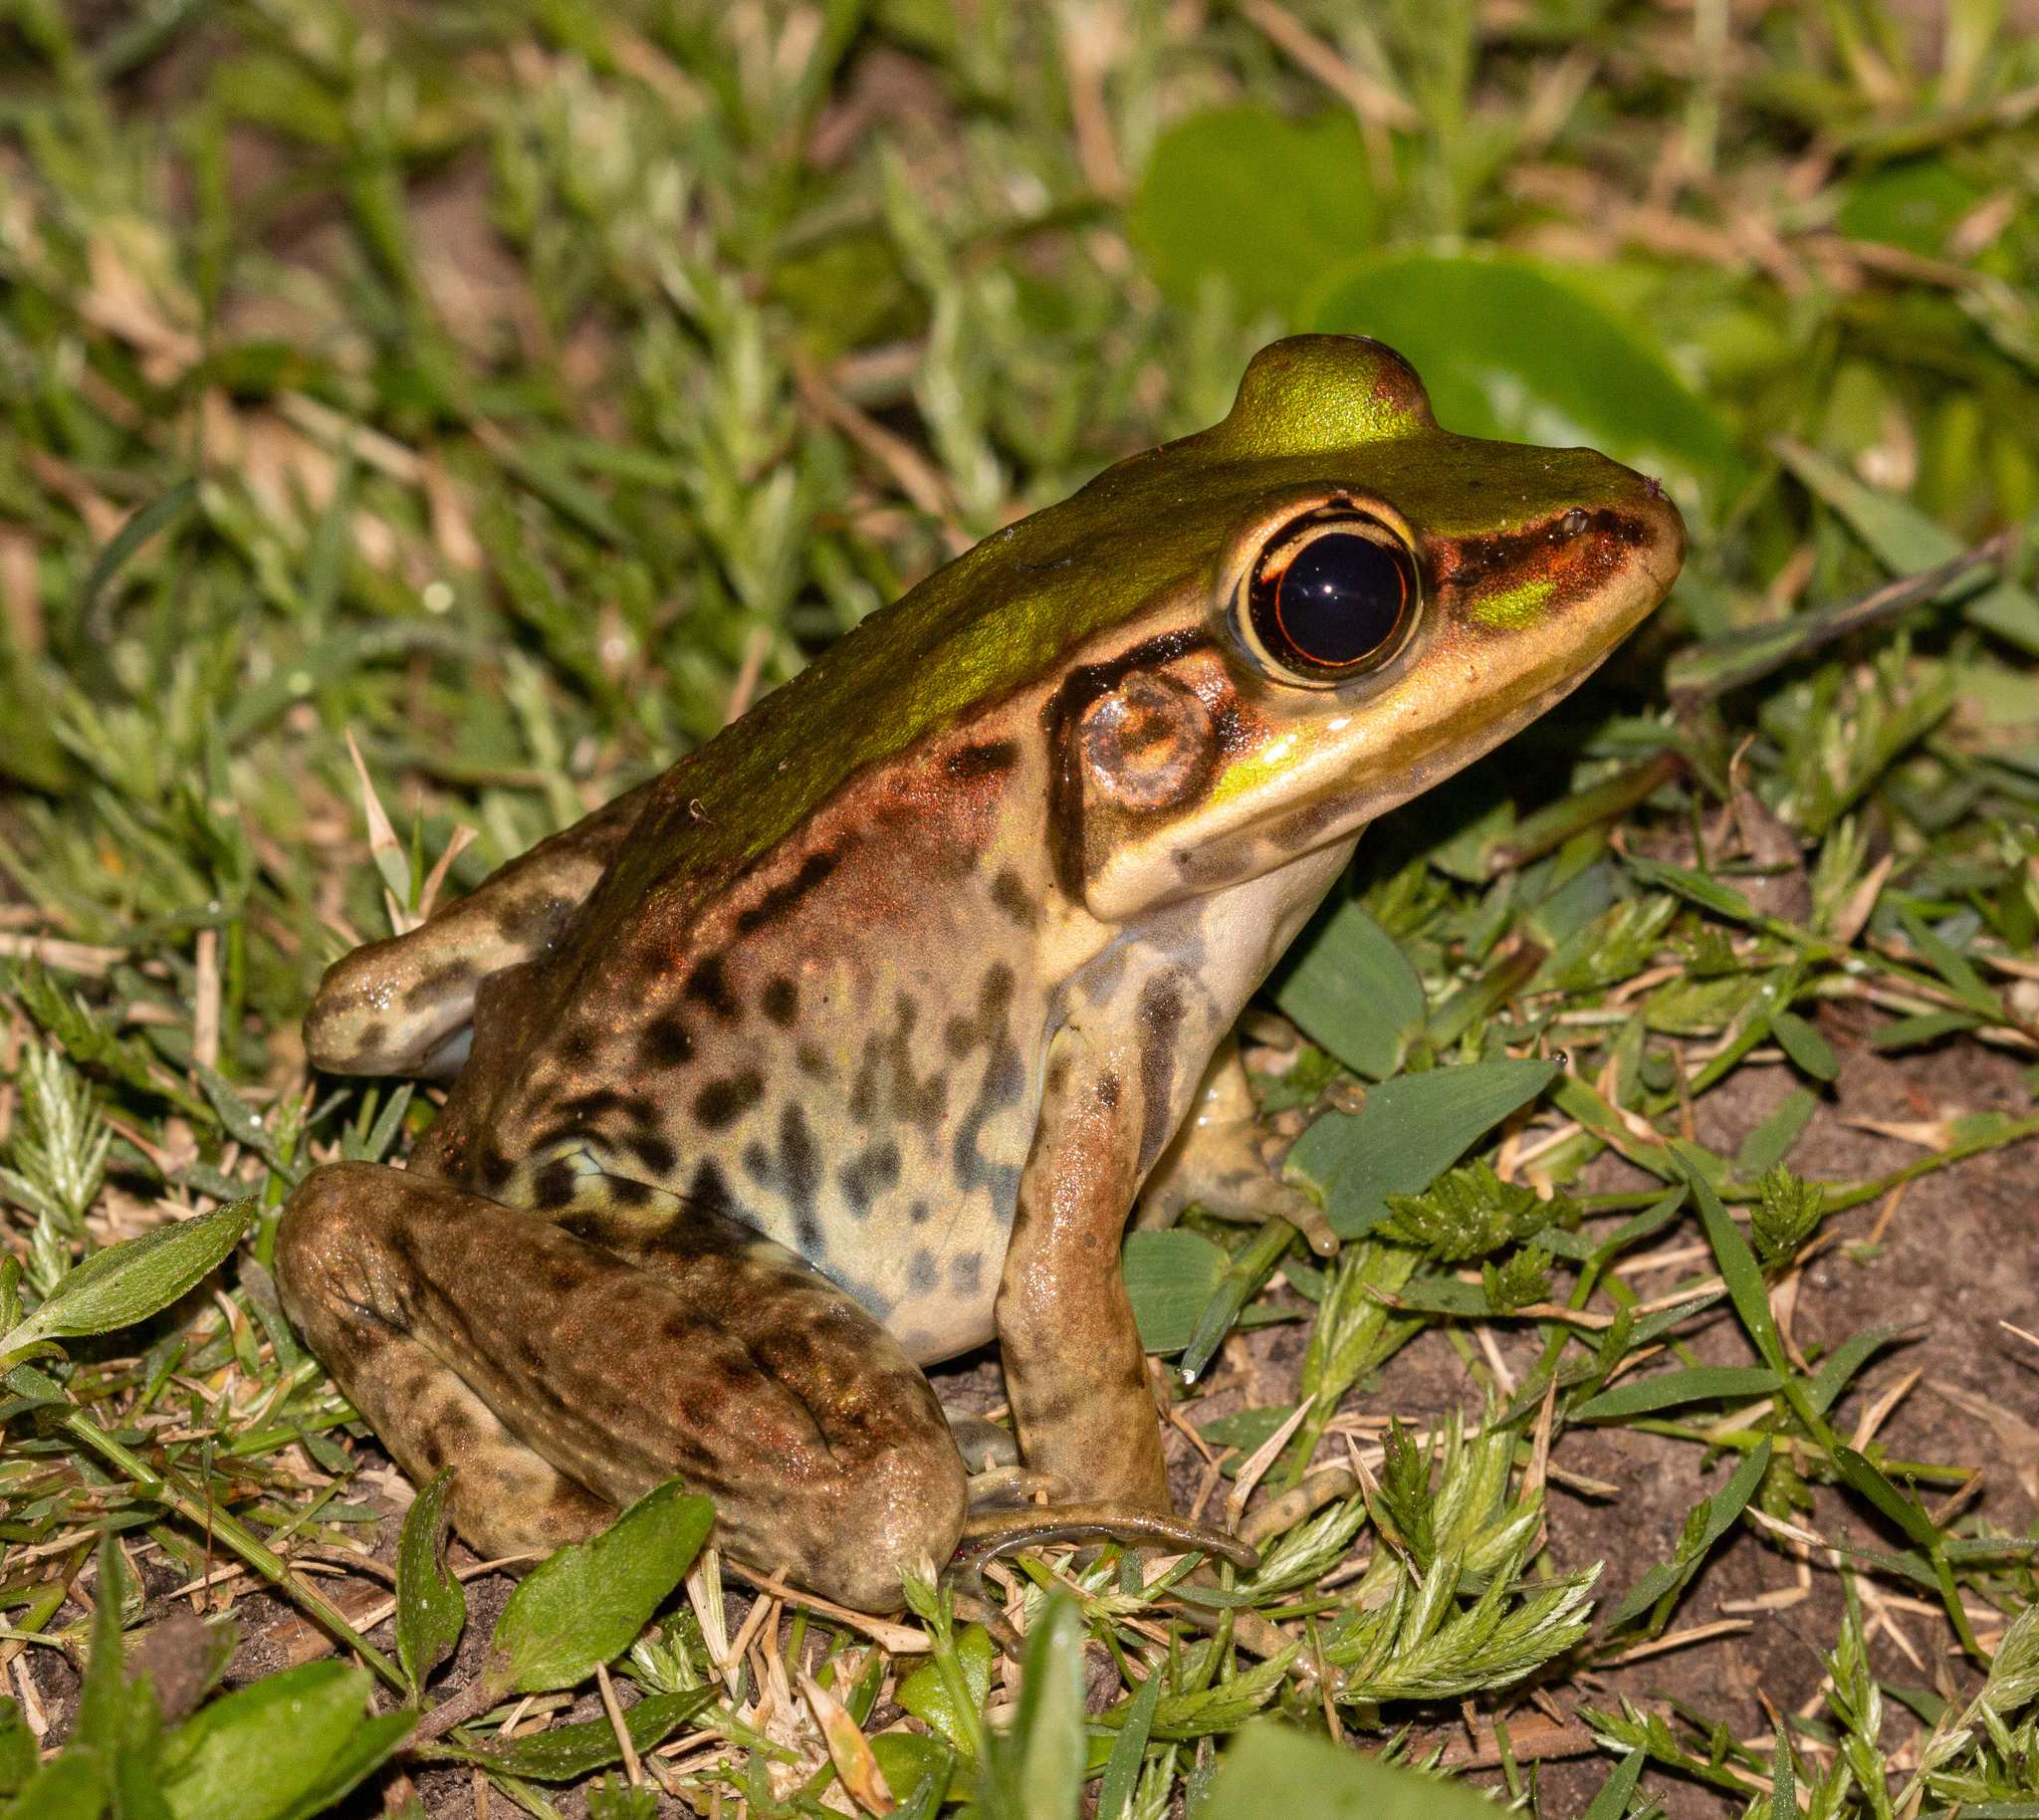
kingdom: Animalia
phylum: Chordata
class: Amphibia
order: Anura
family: Ranidae
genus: Lithobates
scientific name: Lithobates palmipes
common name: Amazon river frog
